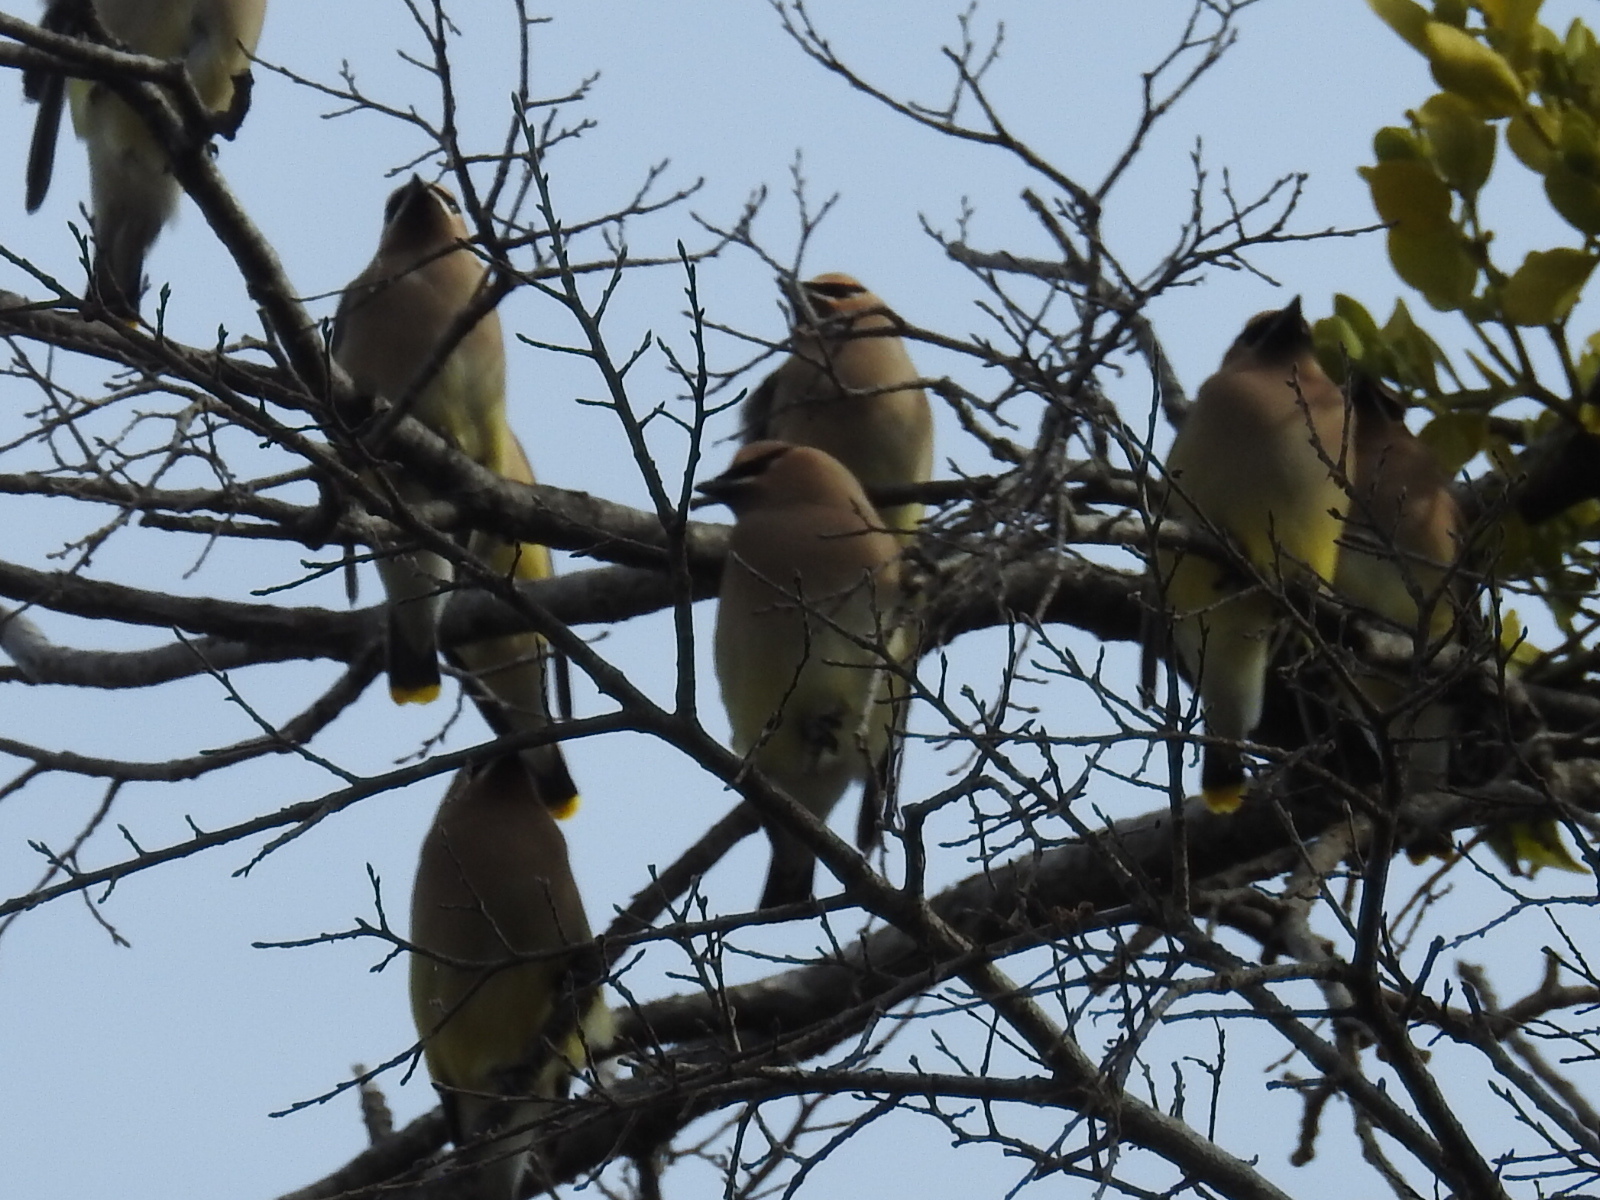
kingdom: Animalia
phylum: Chordata
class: Aves
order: Passeriformes
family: Bombycillidae
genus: Bombycilla
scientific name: Bombycilla cedrorum
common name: Cedar waxwing
